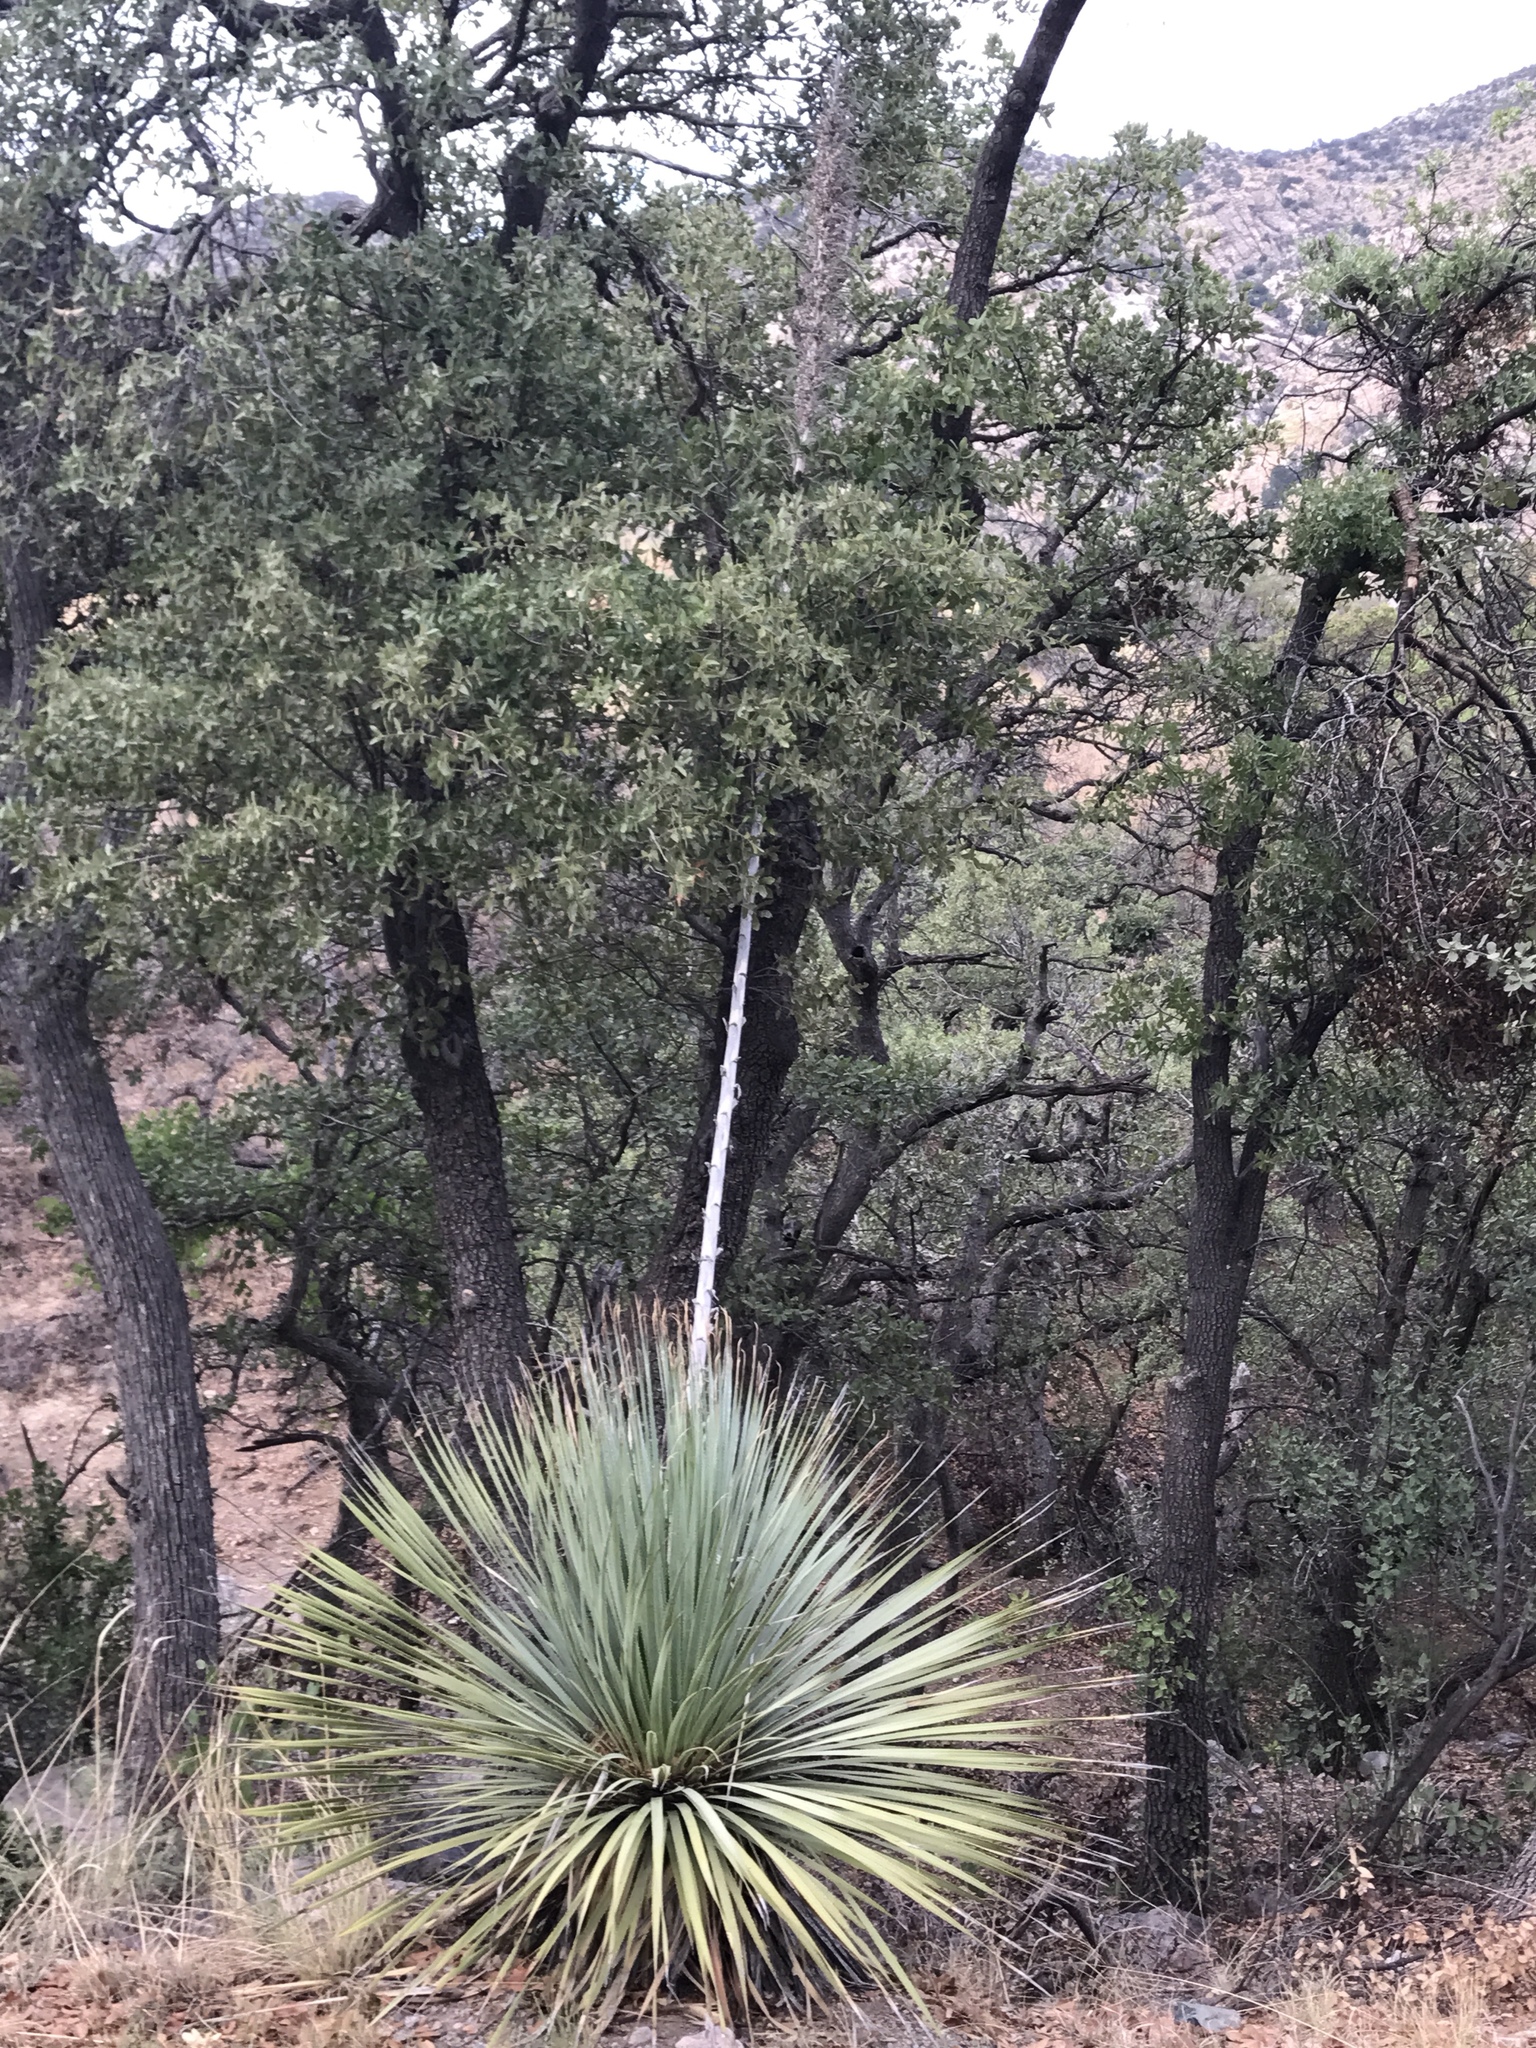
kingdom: Plantae
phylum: Tracheophyta
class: Liliopsida
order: Asparagales
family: Asparagaceae
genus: Dasylirion
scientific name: Dasylirion wheeleri
